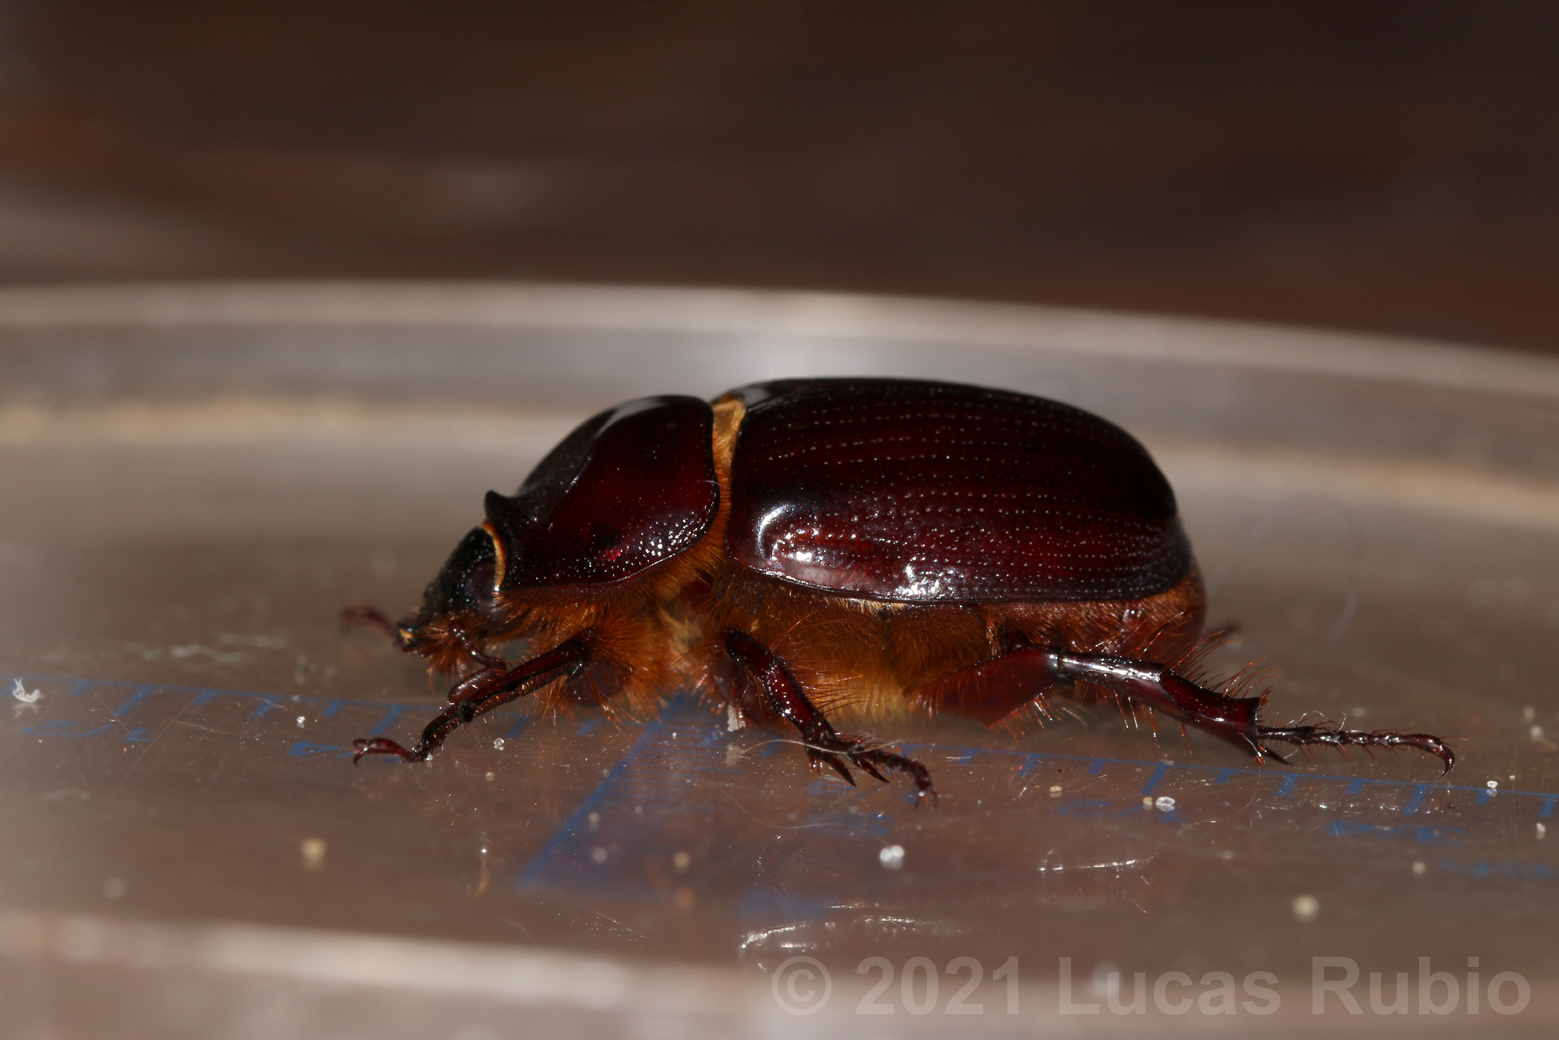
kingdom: Animalia
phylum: Arthropoda
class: Insecta
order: Coleoptera
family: Scarabaeidae
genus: Bothynus
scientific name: Bothynus striatellus
